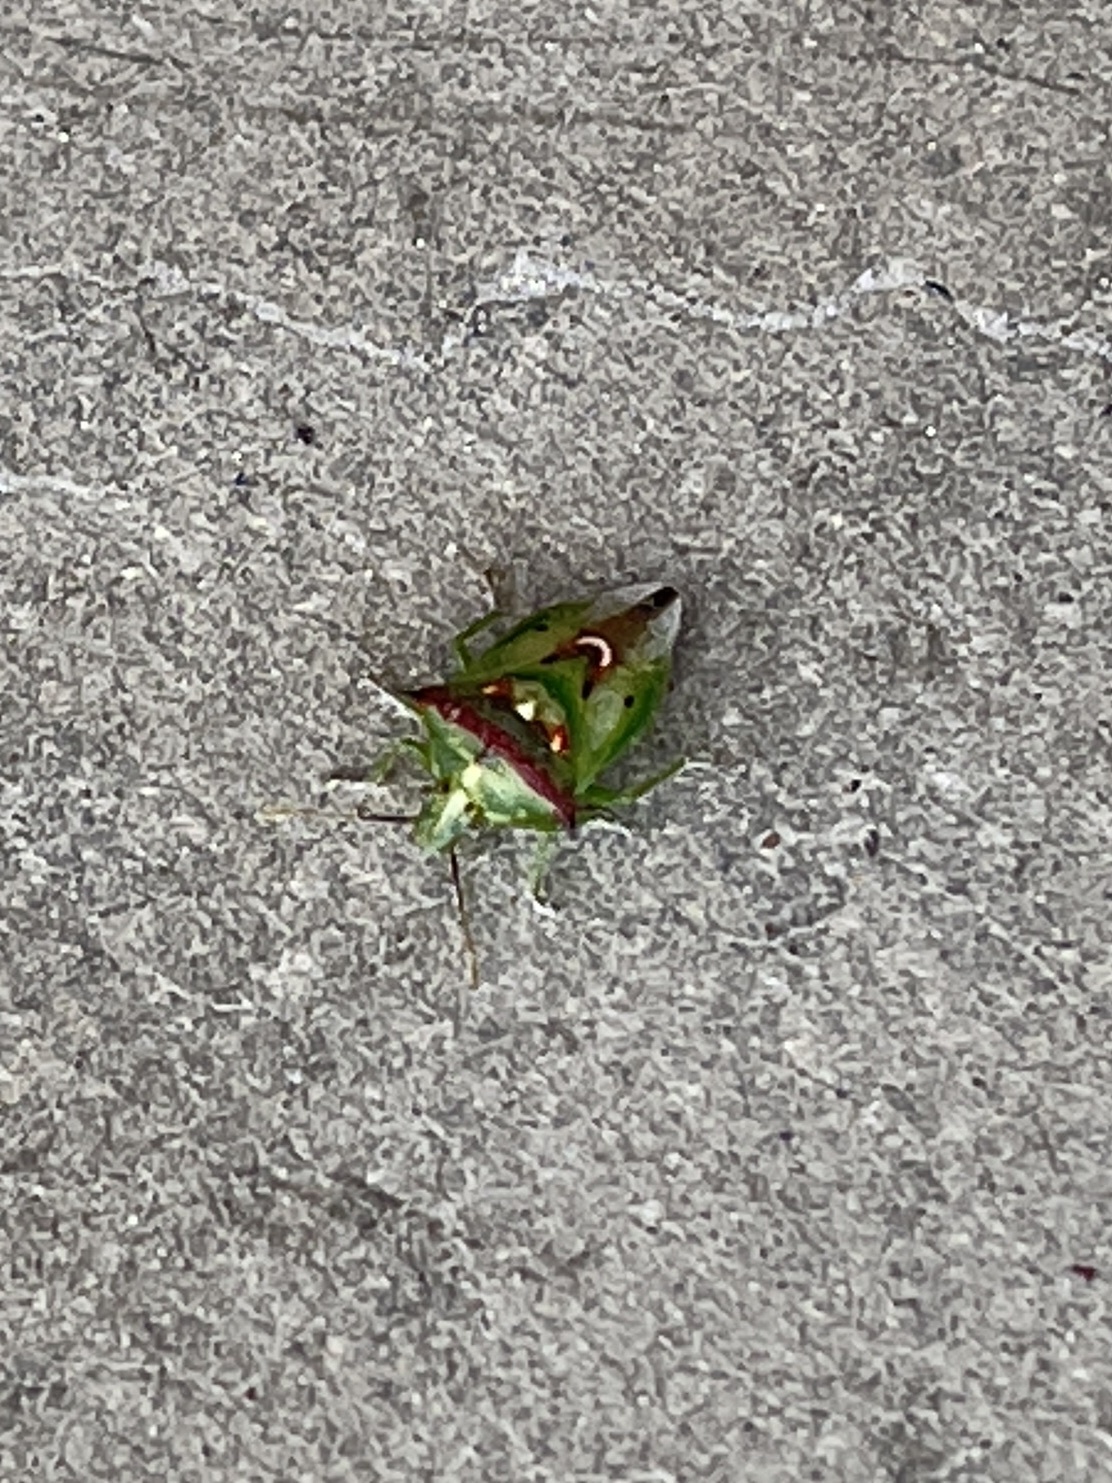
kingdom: Animalia
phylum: Arthropoda
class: Insecta
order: Hemiptera
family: Pentatomidae
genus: Tylospilus
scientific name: Tylospilus acutissimus
